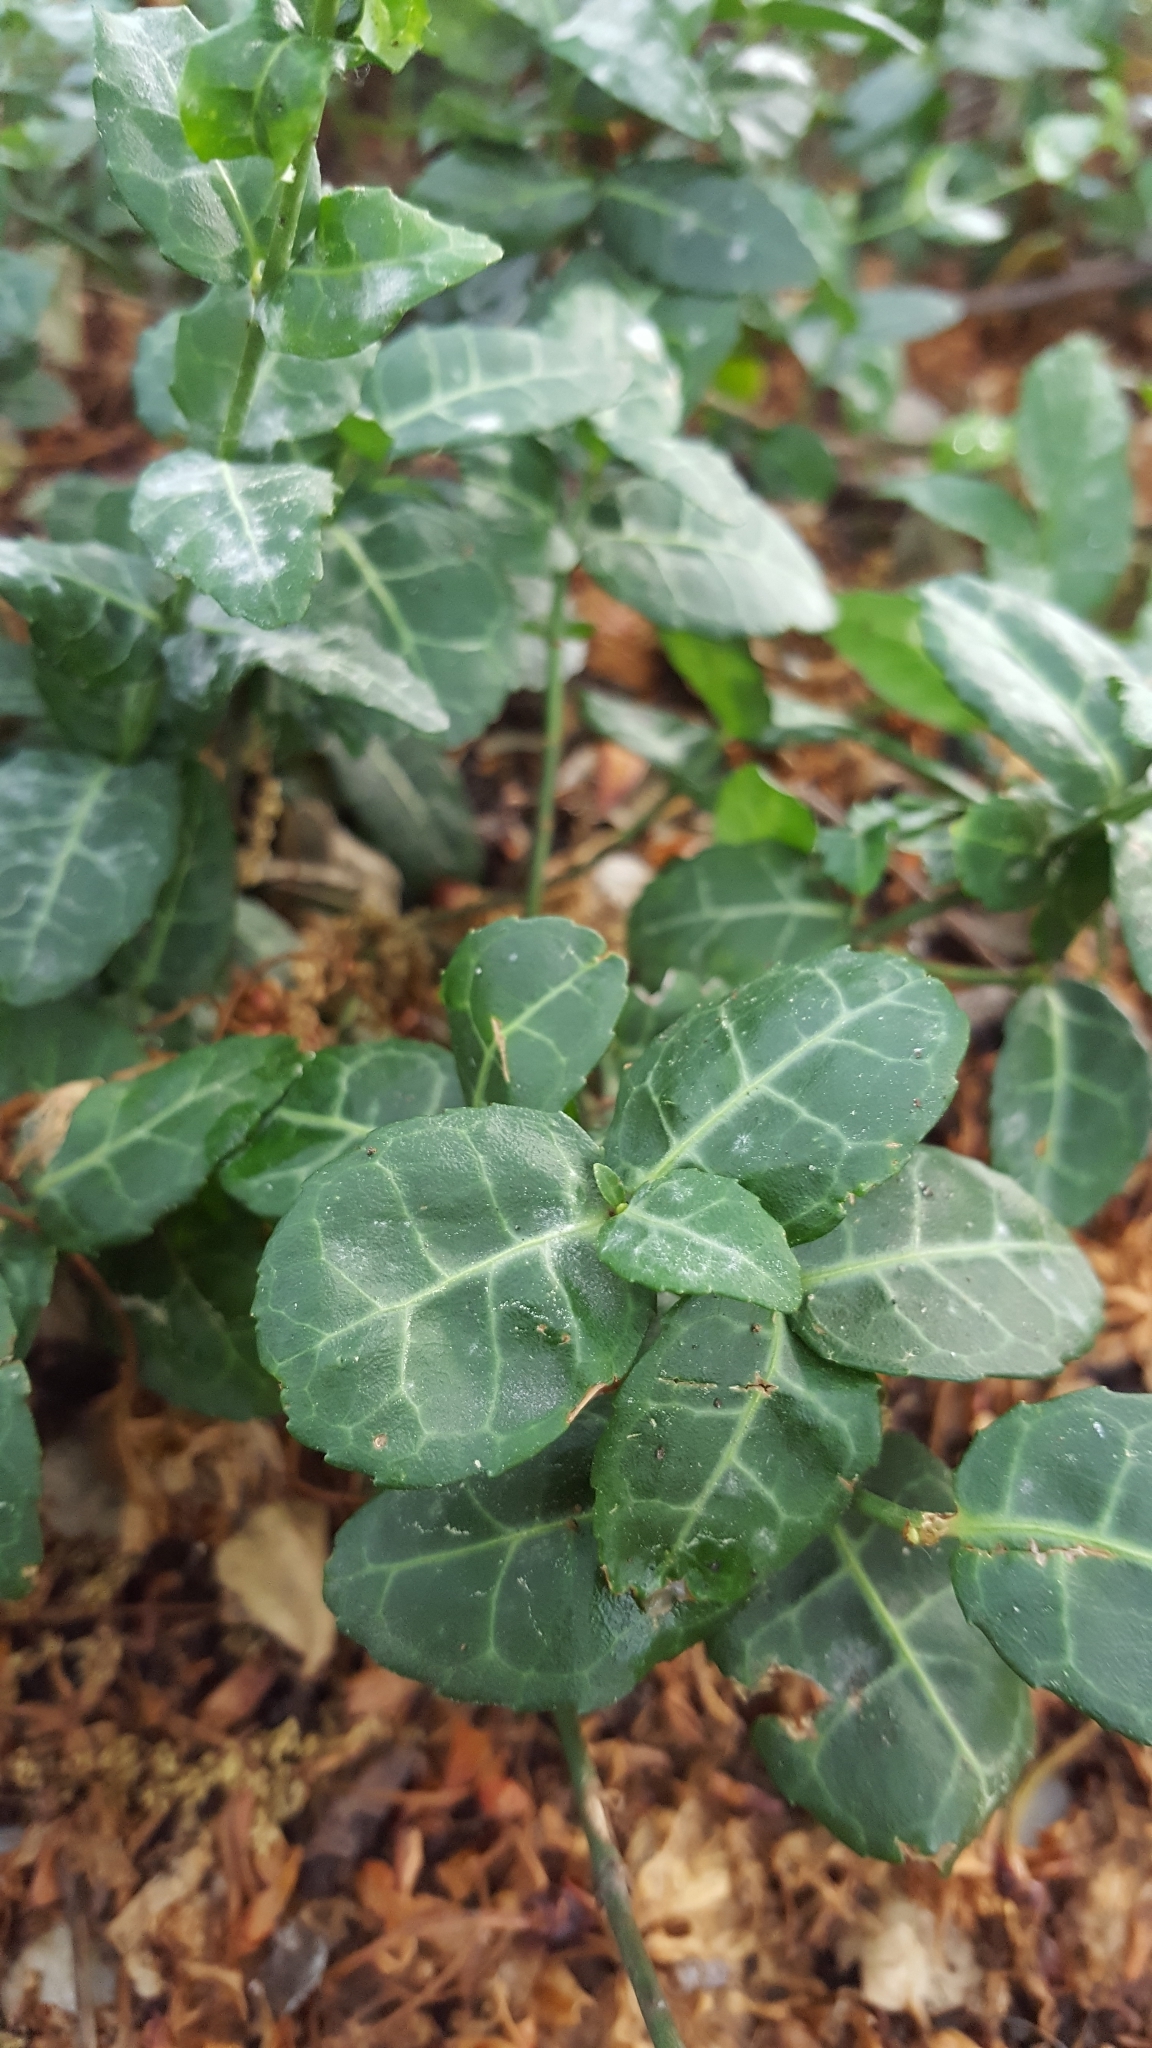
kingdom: Plantae
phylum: Tracheophyta
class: Magnoliopsida
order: Celastrales
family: Celastraceae
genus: Euonymus
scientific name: Euonymus fortunei
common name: Climbing euonymus
